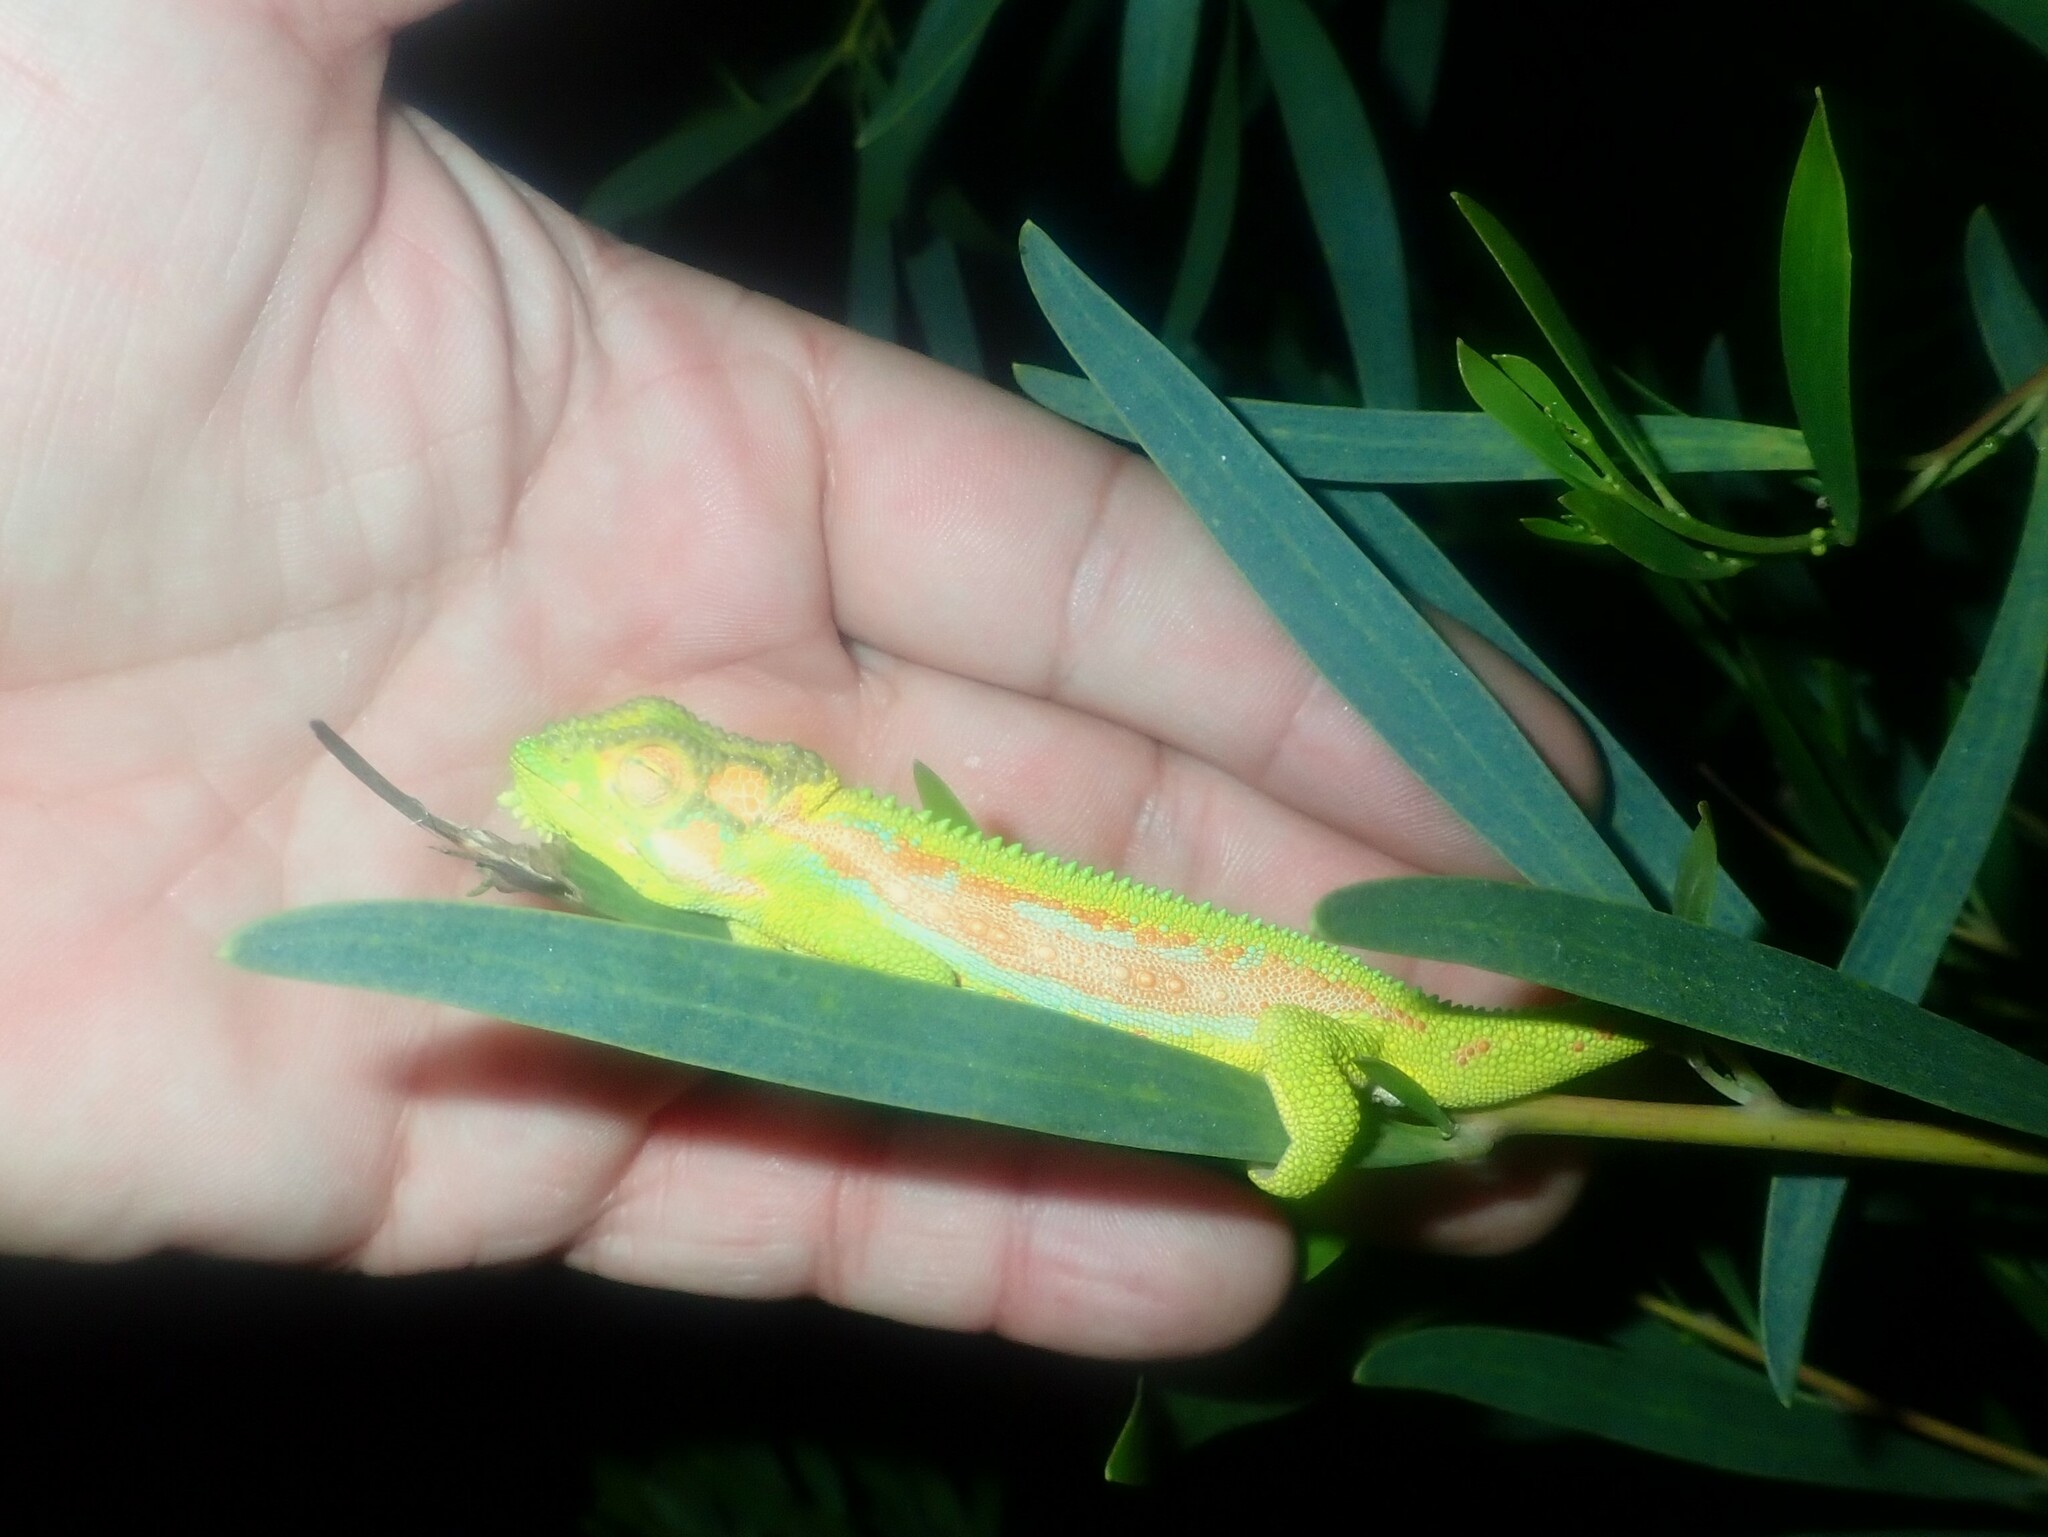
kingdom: Animalia
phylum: Chordata
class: Squamata
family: Chamaeleonidae
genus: Bradypodion
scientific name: Bradypodion pumilum
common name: Cape dwarf chameleon
